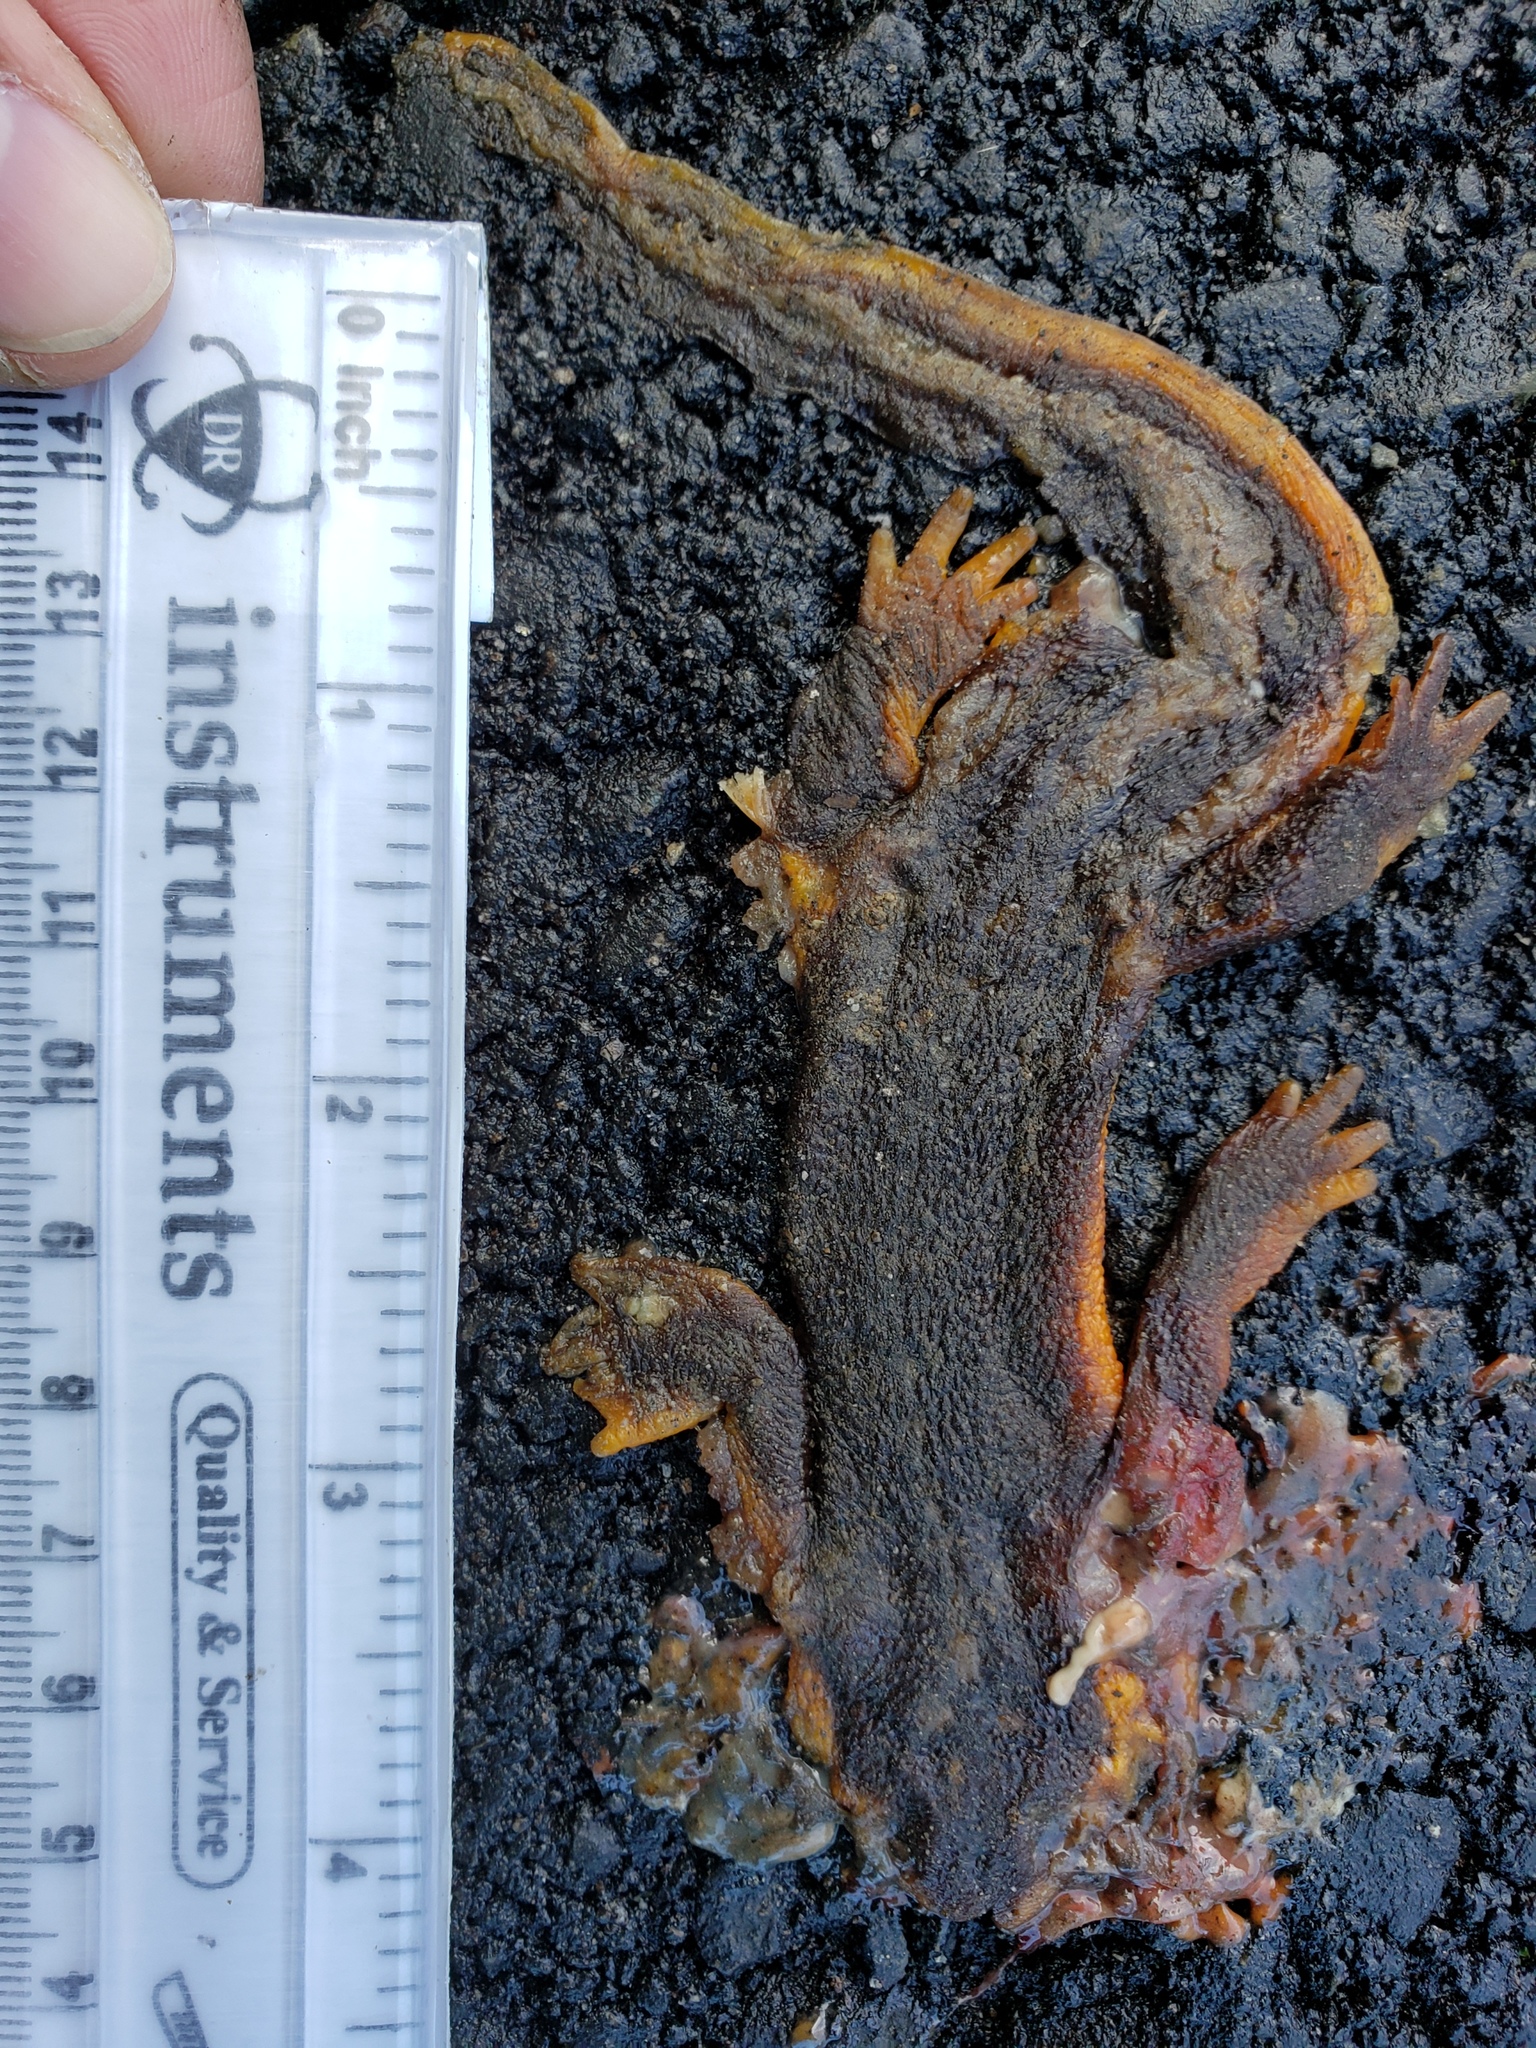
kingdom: Animalia
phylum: Chordata
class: Amphibia
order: Caudata
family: Salamandridae
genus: Taricha
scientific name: Taricha
